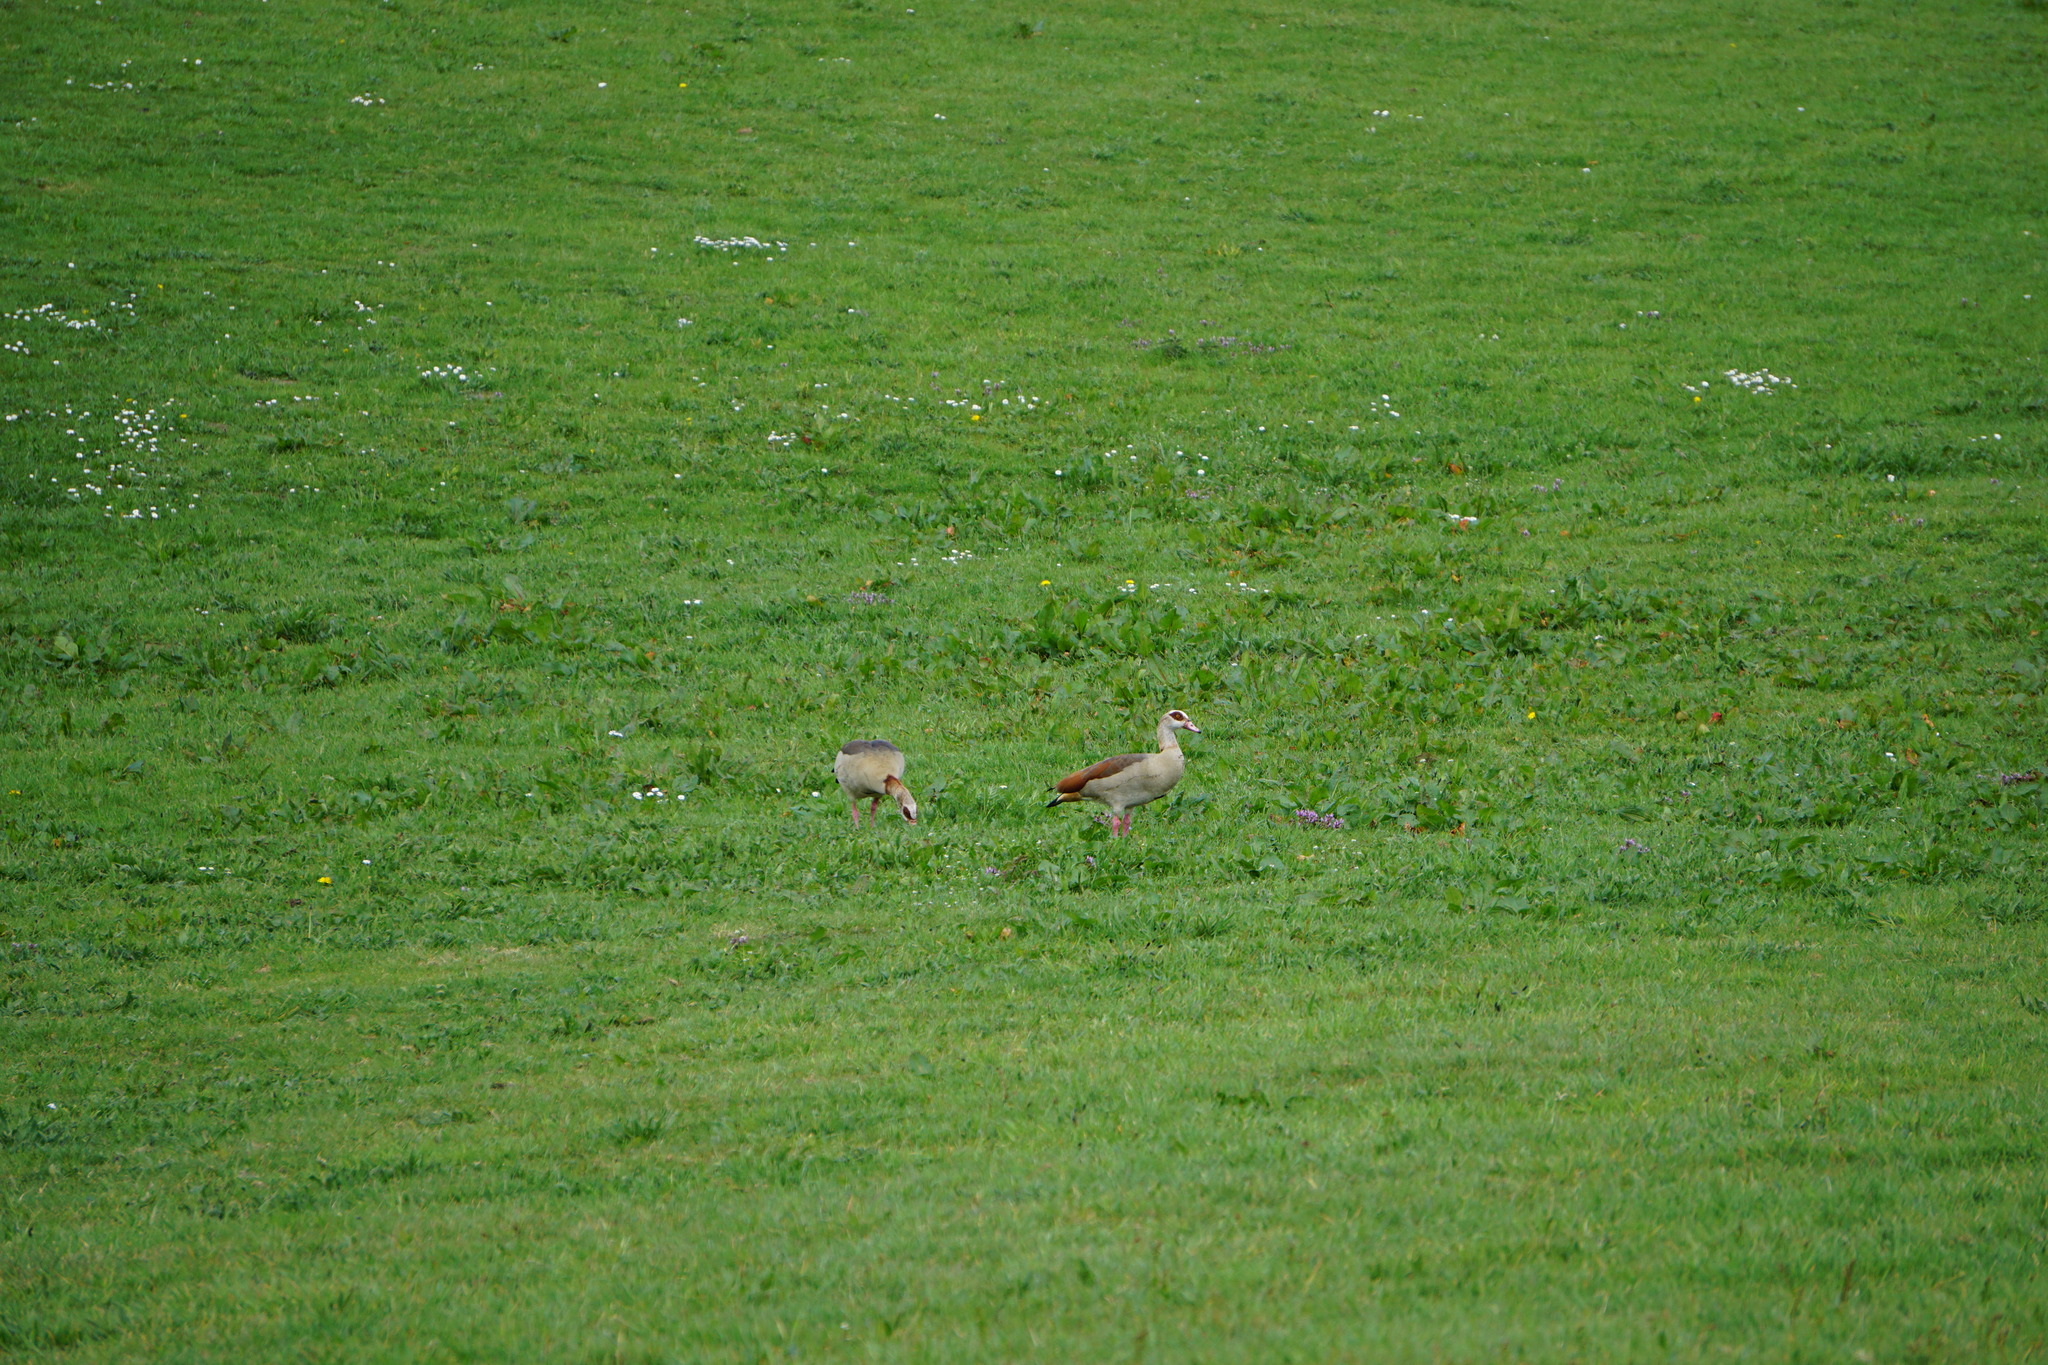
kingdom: Animalia
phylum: Chordata
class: Aves
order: Anseriformes
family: Anatidae
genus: Alopochen
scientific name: Alopochen aegyptiaca
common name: Egyptian goose
